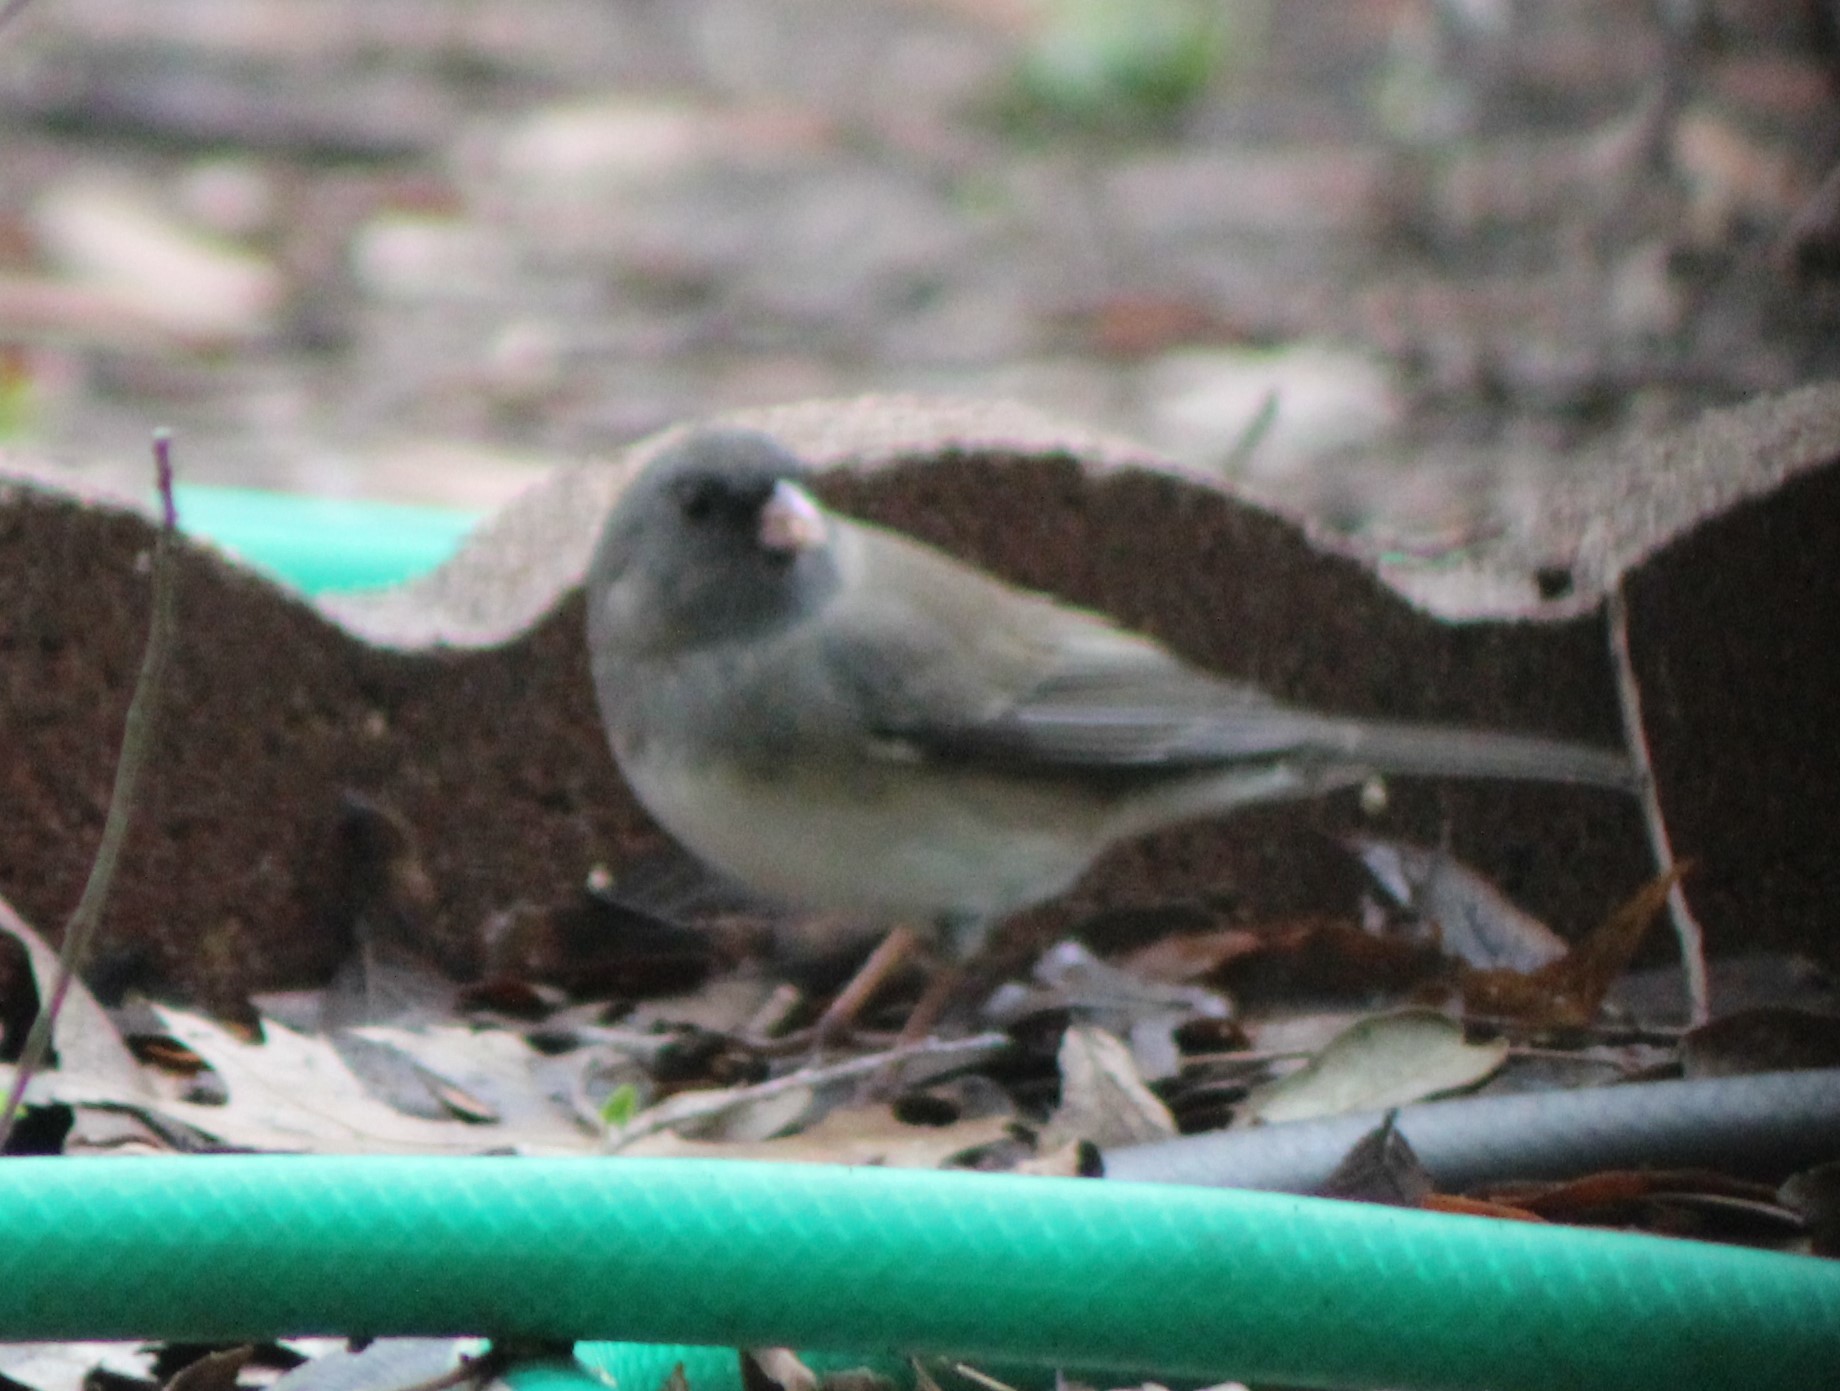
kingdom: Animalia
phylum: Chordata
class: Aves
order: Passeriformes
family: Passerellidae
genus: Junco
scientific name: Junco hyemalis
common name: Dark-eyed junco
